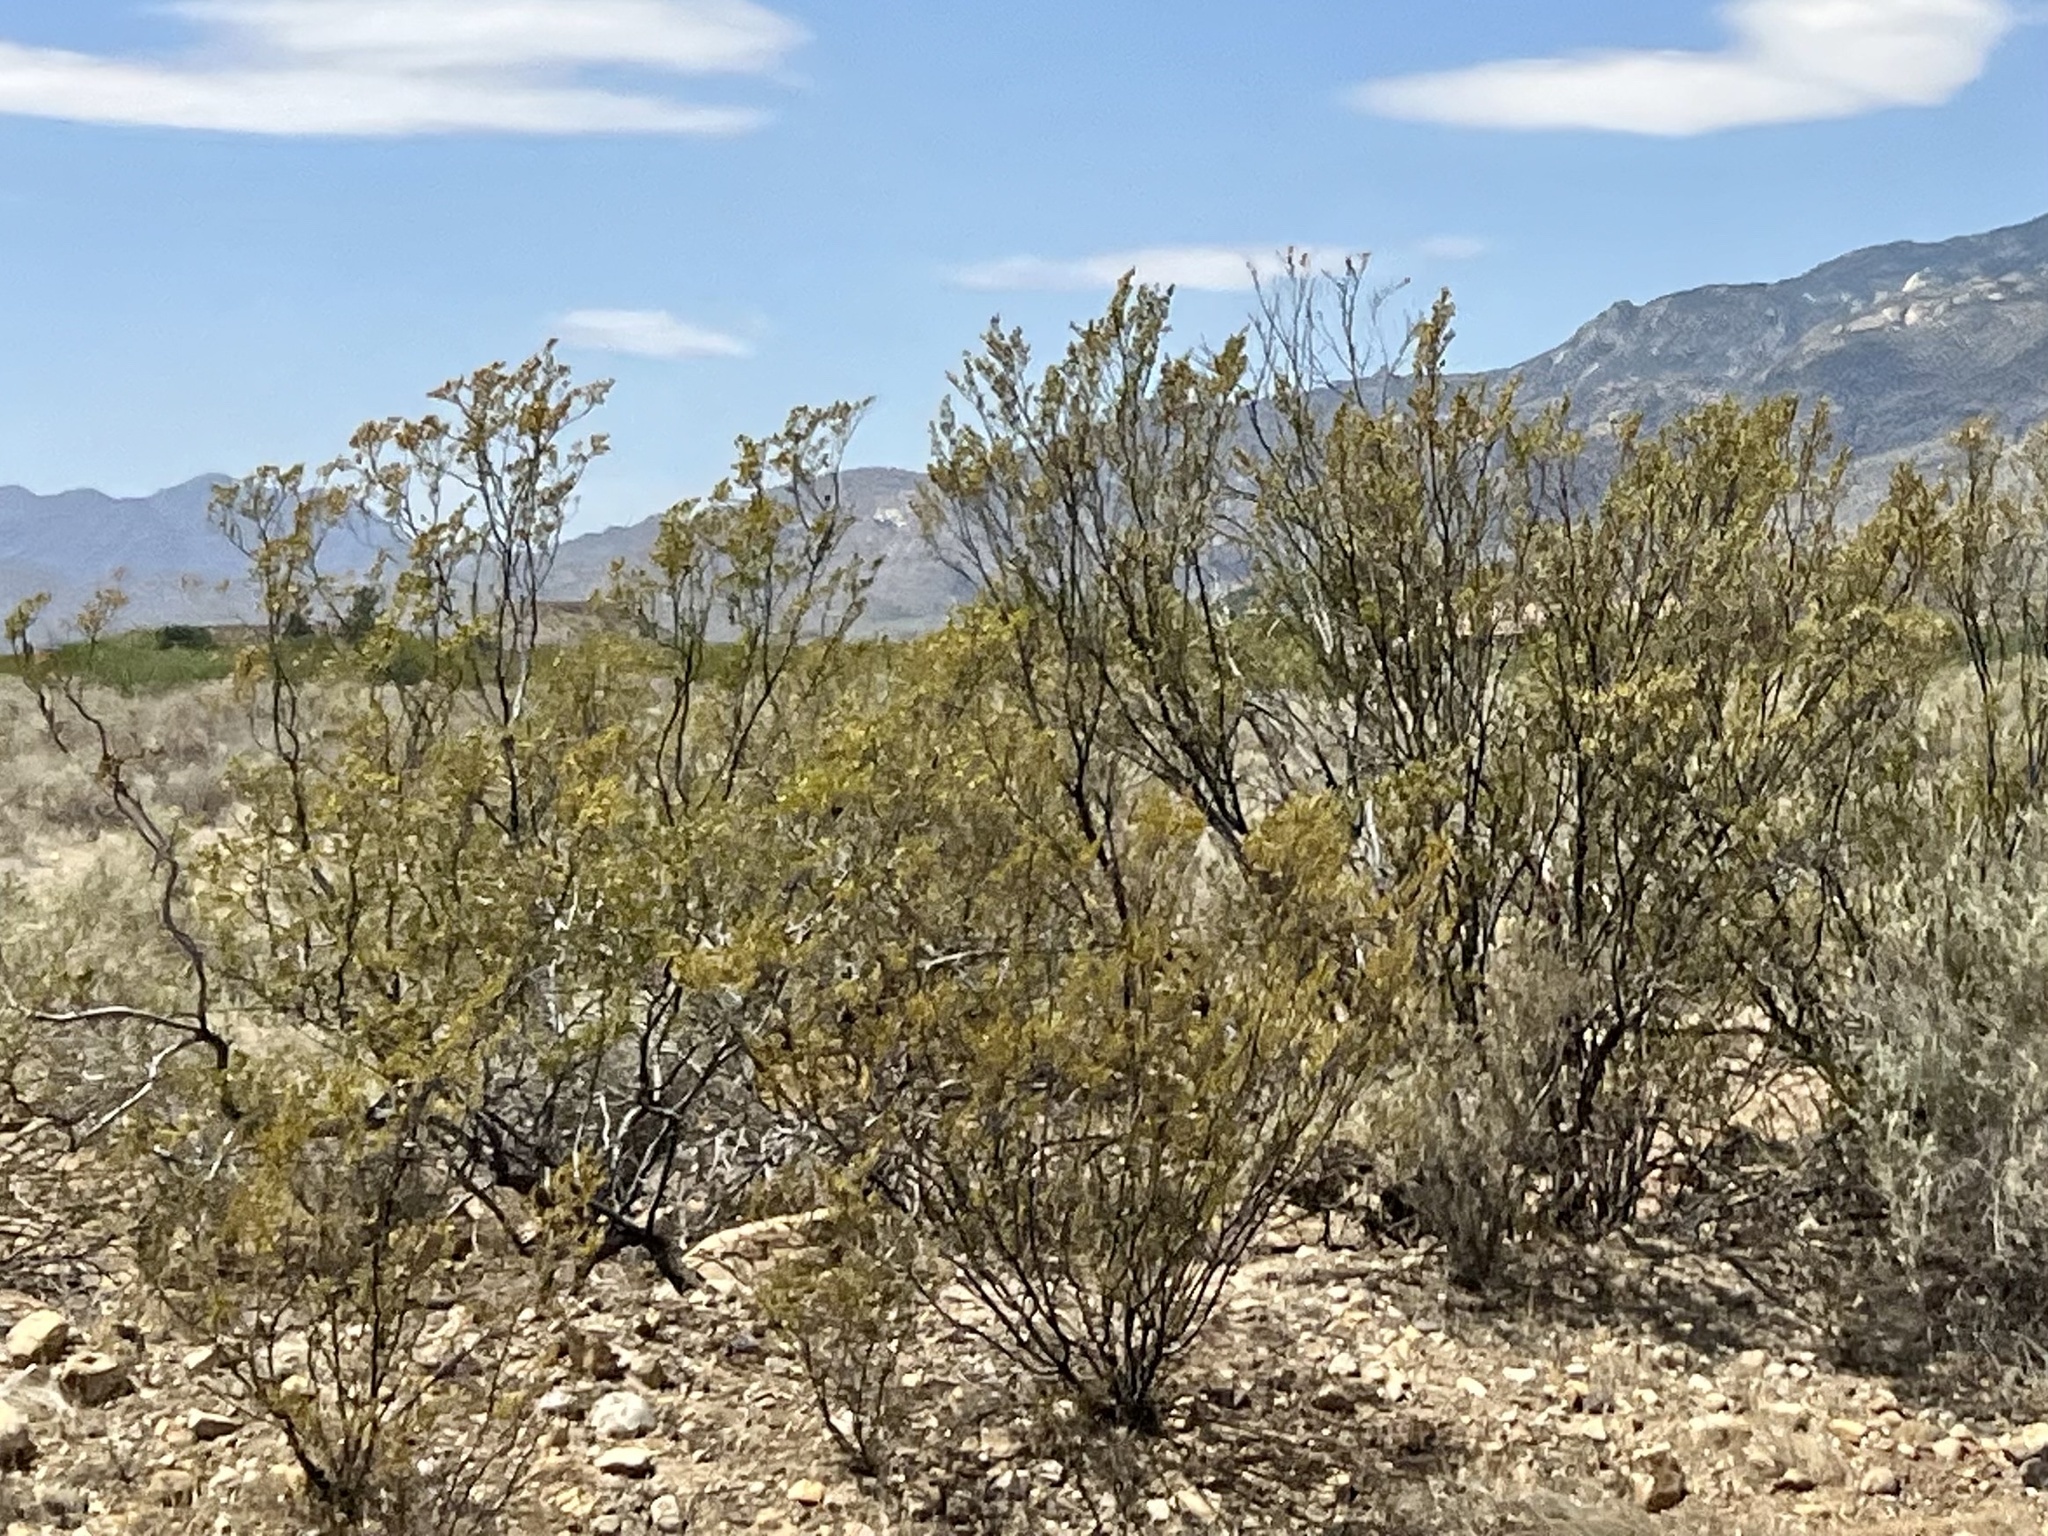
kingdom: Plantae
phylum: Tracheophyta
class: Magnoliopsida
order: Zygophyllales
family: Zygophyllaceae
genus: Larrea
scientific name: Larrea tridentata
